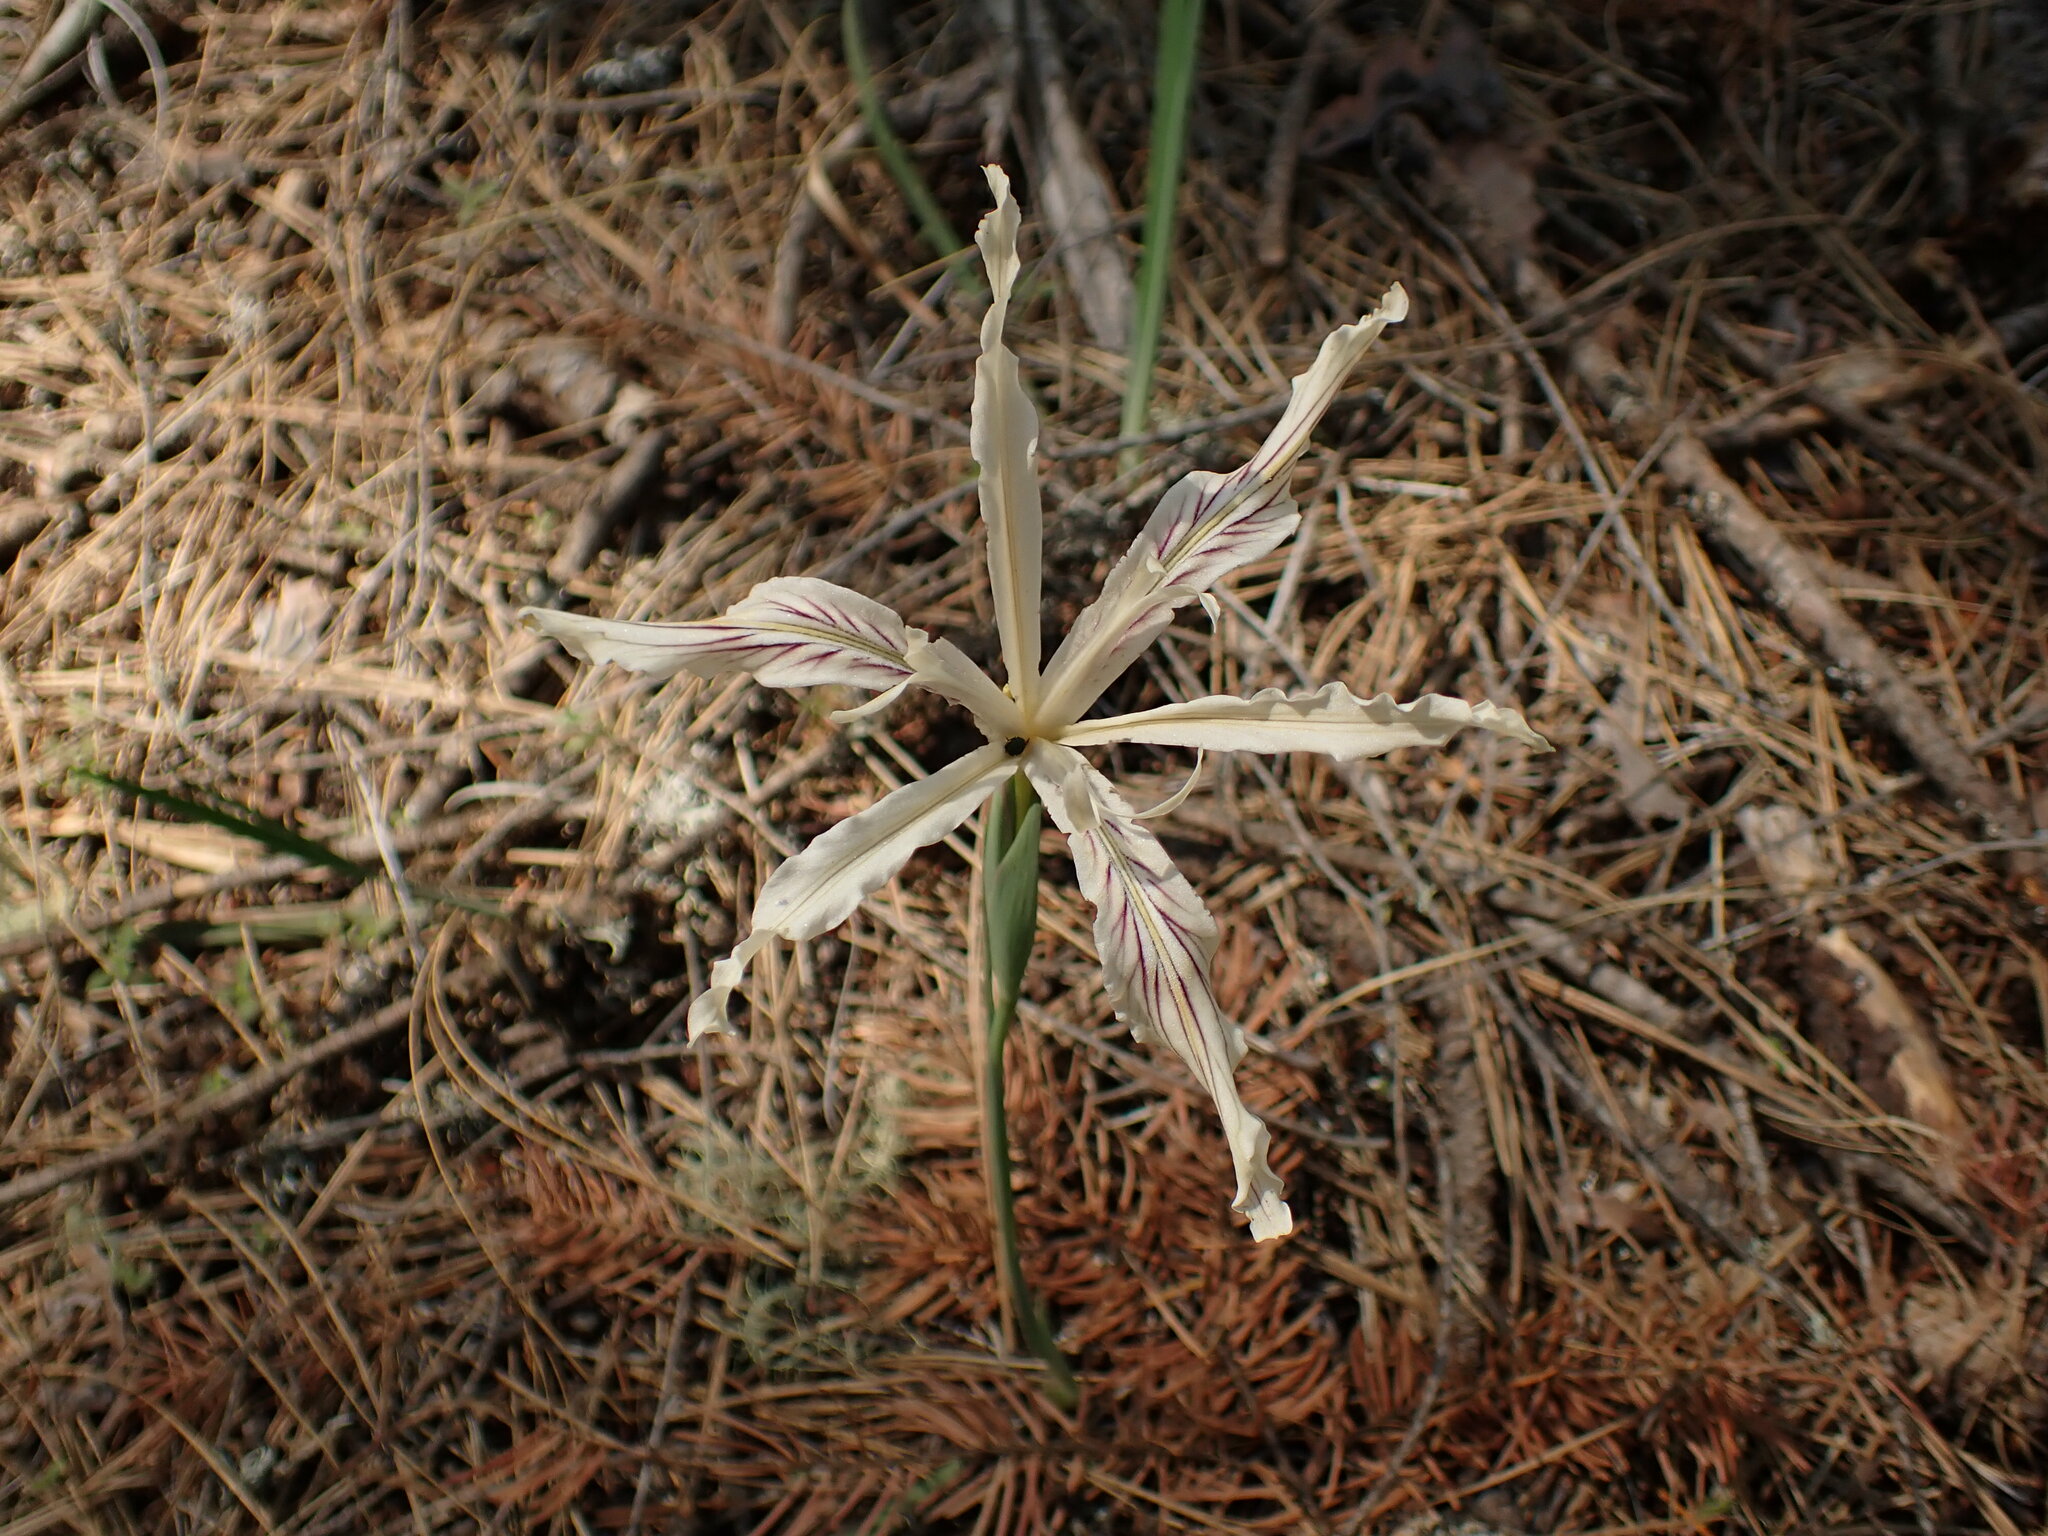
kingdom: Plantae
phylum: Tracheophyta
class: Liliopsida
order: Asparagales
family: Iridaceae
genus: Iris
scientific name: Iris tenuissima
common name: Long-tube iris
